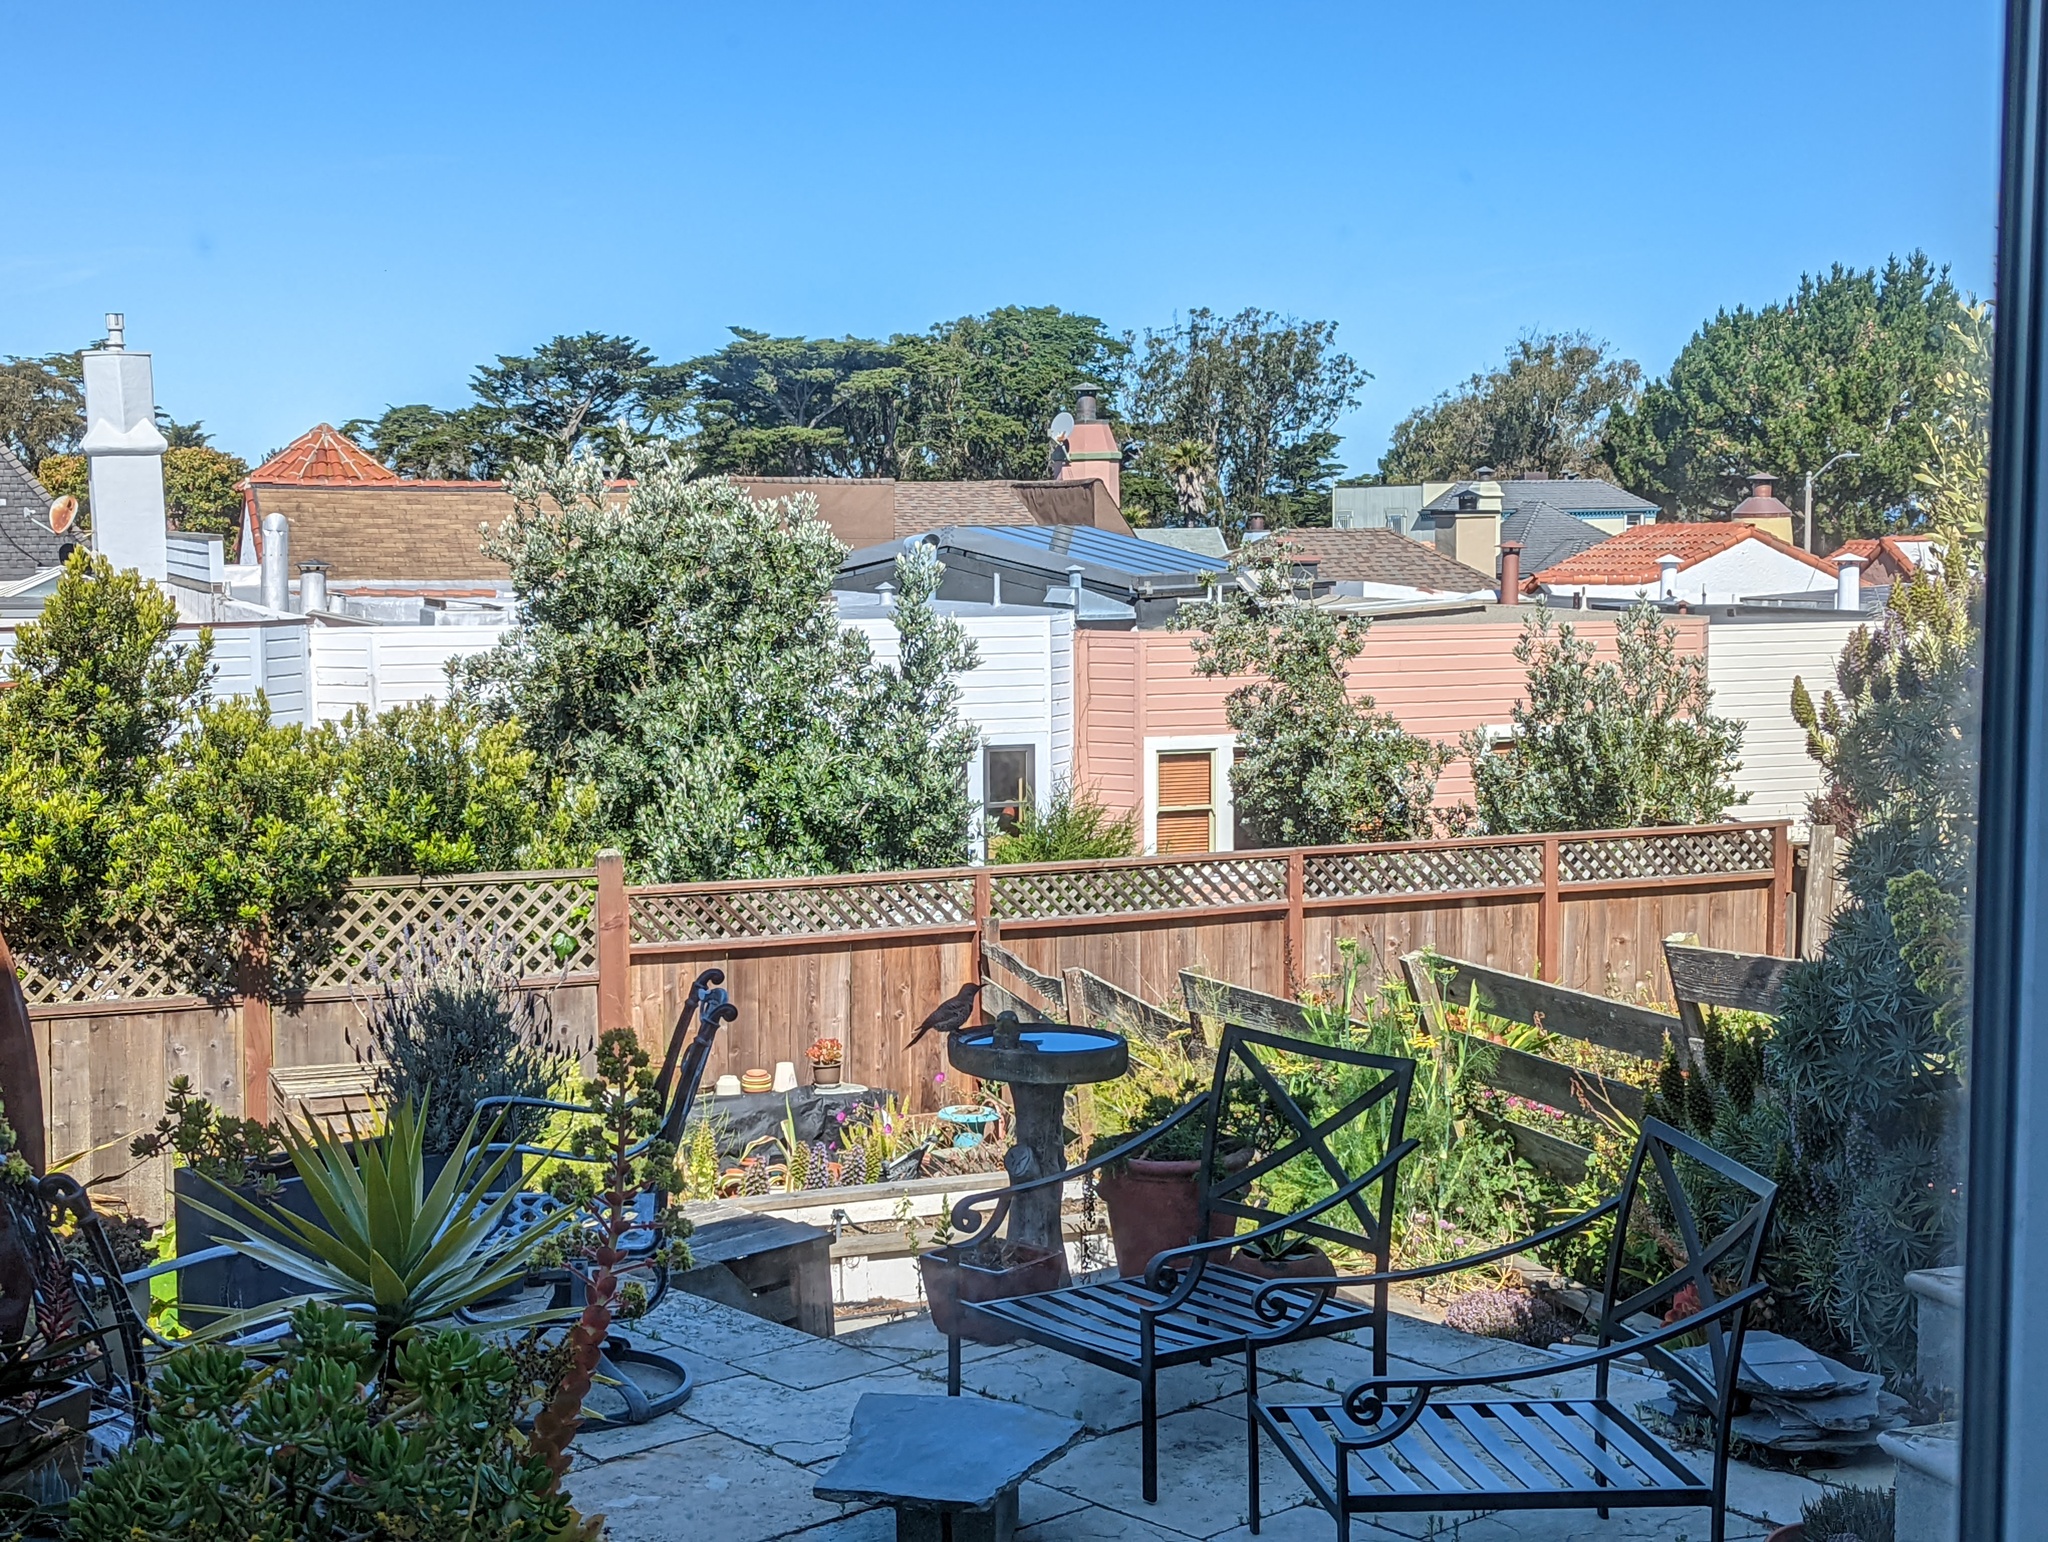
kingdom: Animalia
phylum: Chordata
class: Aves
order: Piciformes
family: Picidae
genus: Colaptes
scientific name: Colaptes auratus
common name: Northern flicker
